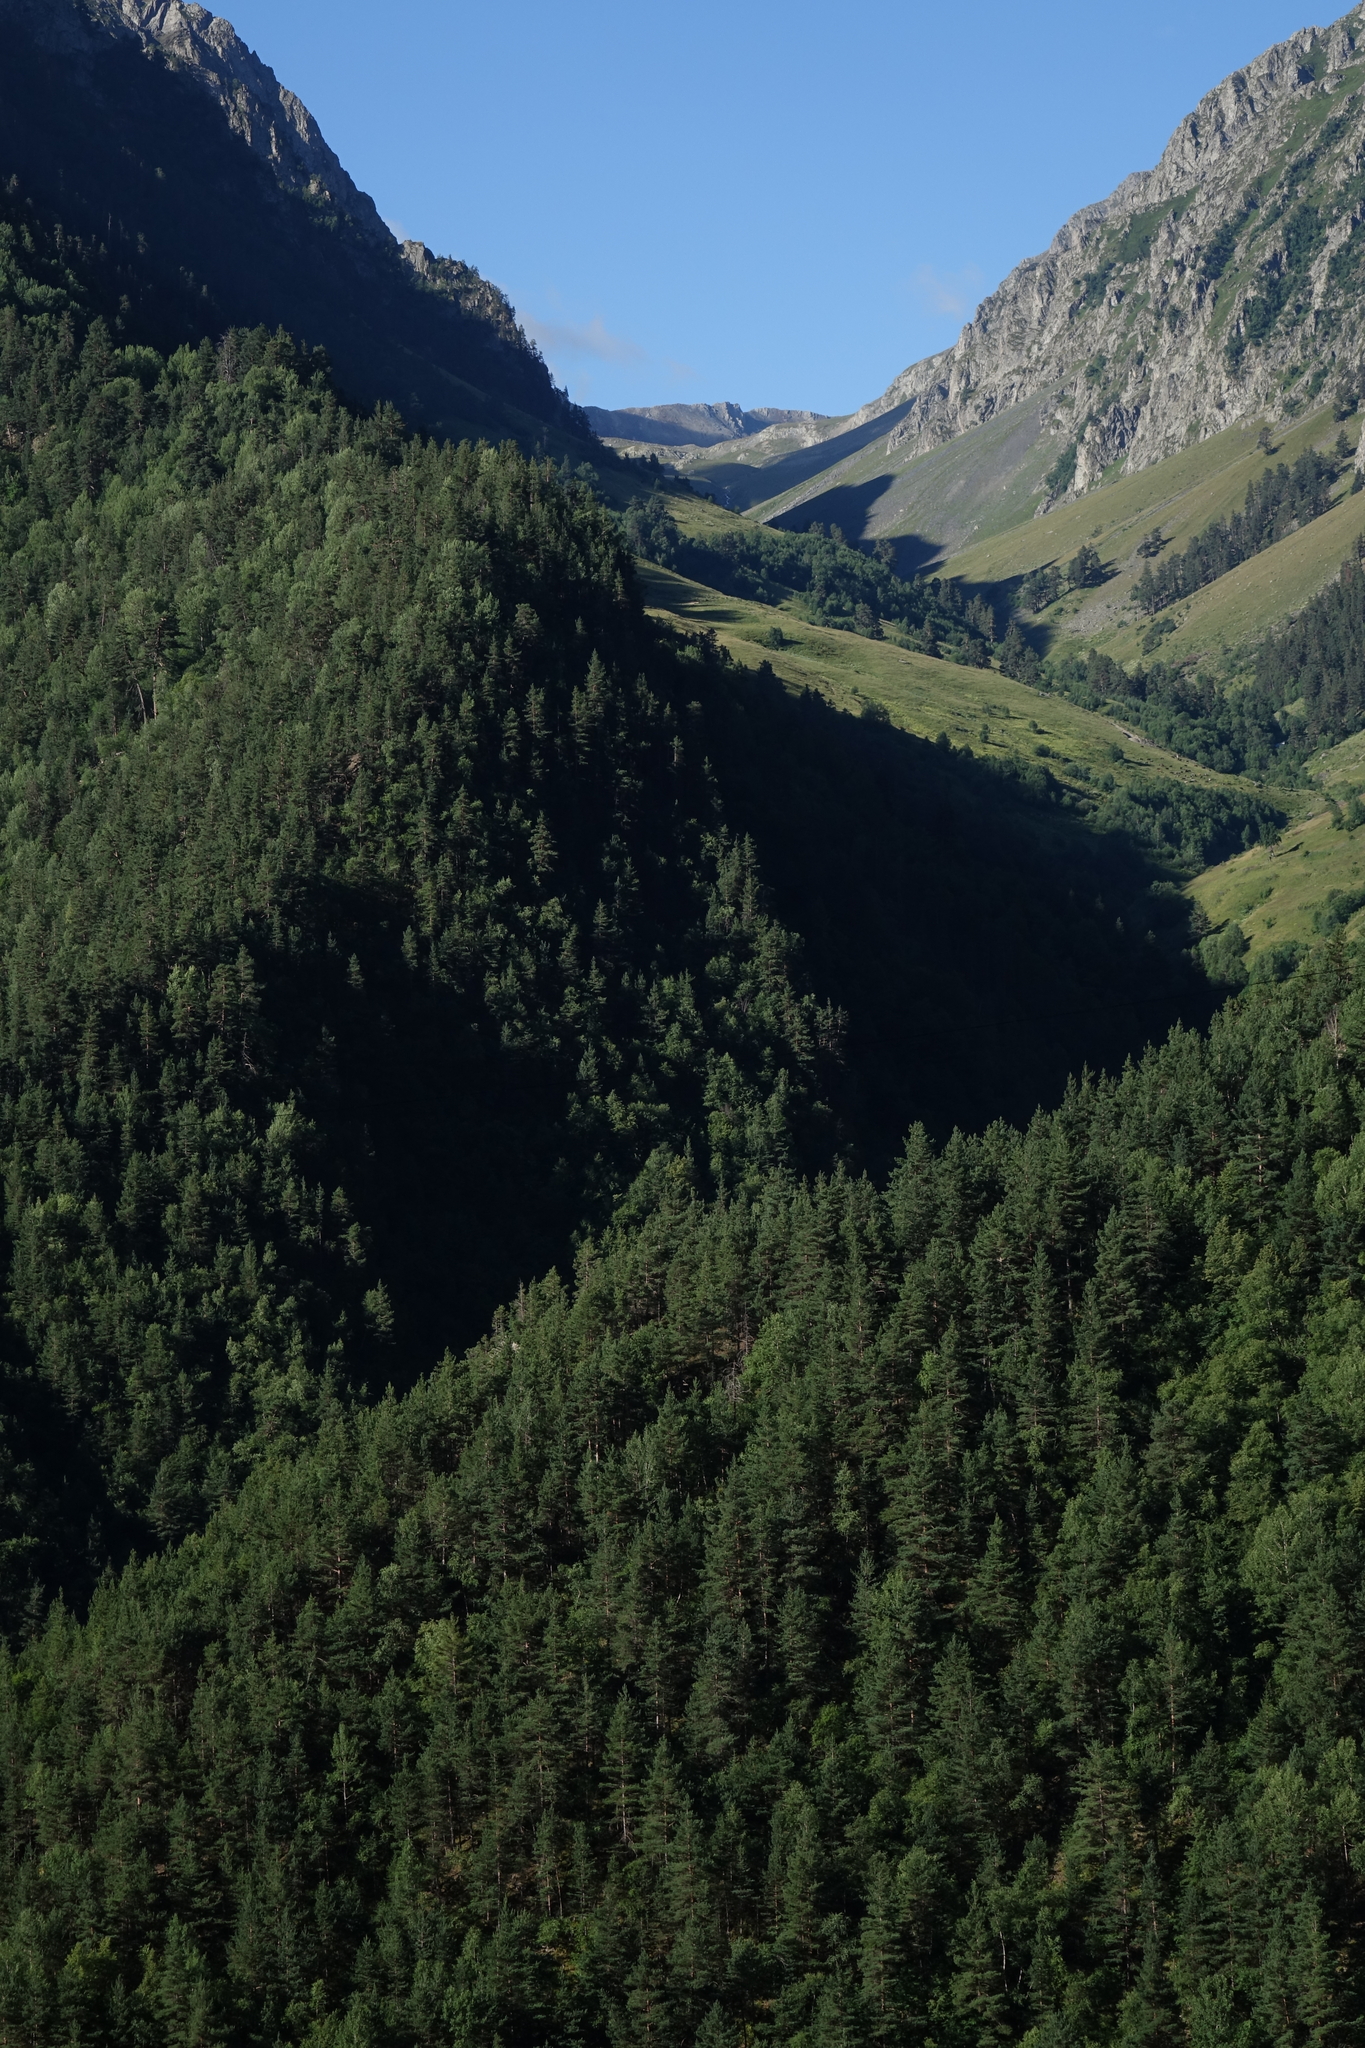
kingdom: Plantae
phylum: Tracheophyta
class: Pinopsida
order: Pinales
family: Pinaceae
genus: Pinus
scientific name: Pinus sylvestris
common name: Scots pine
